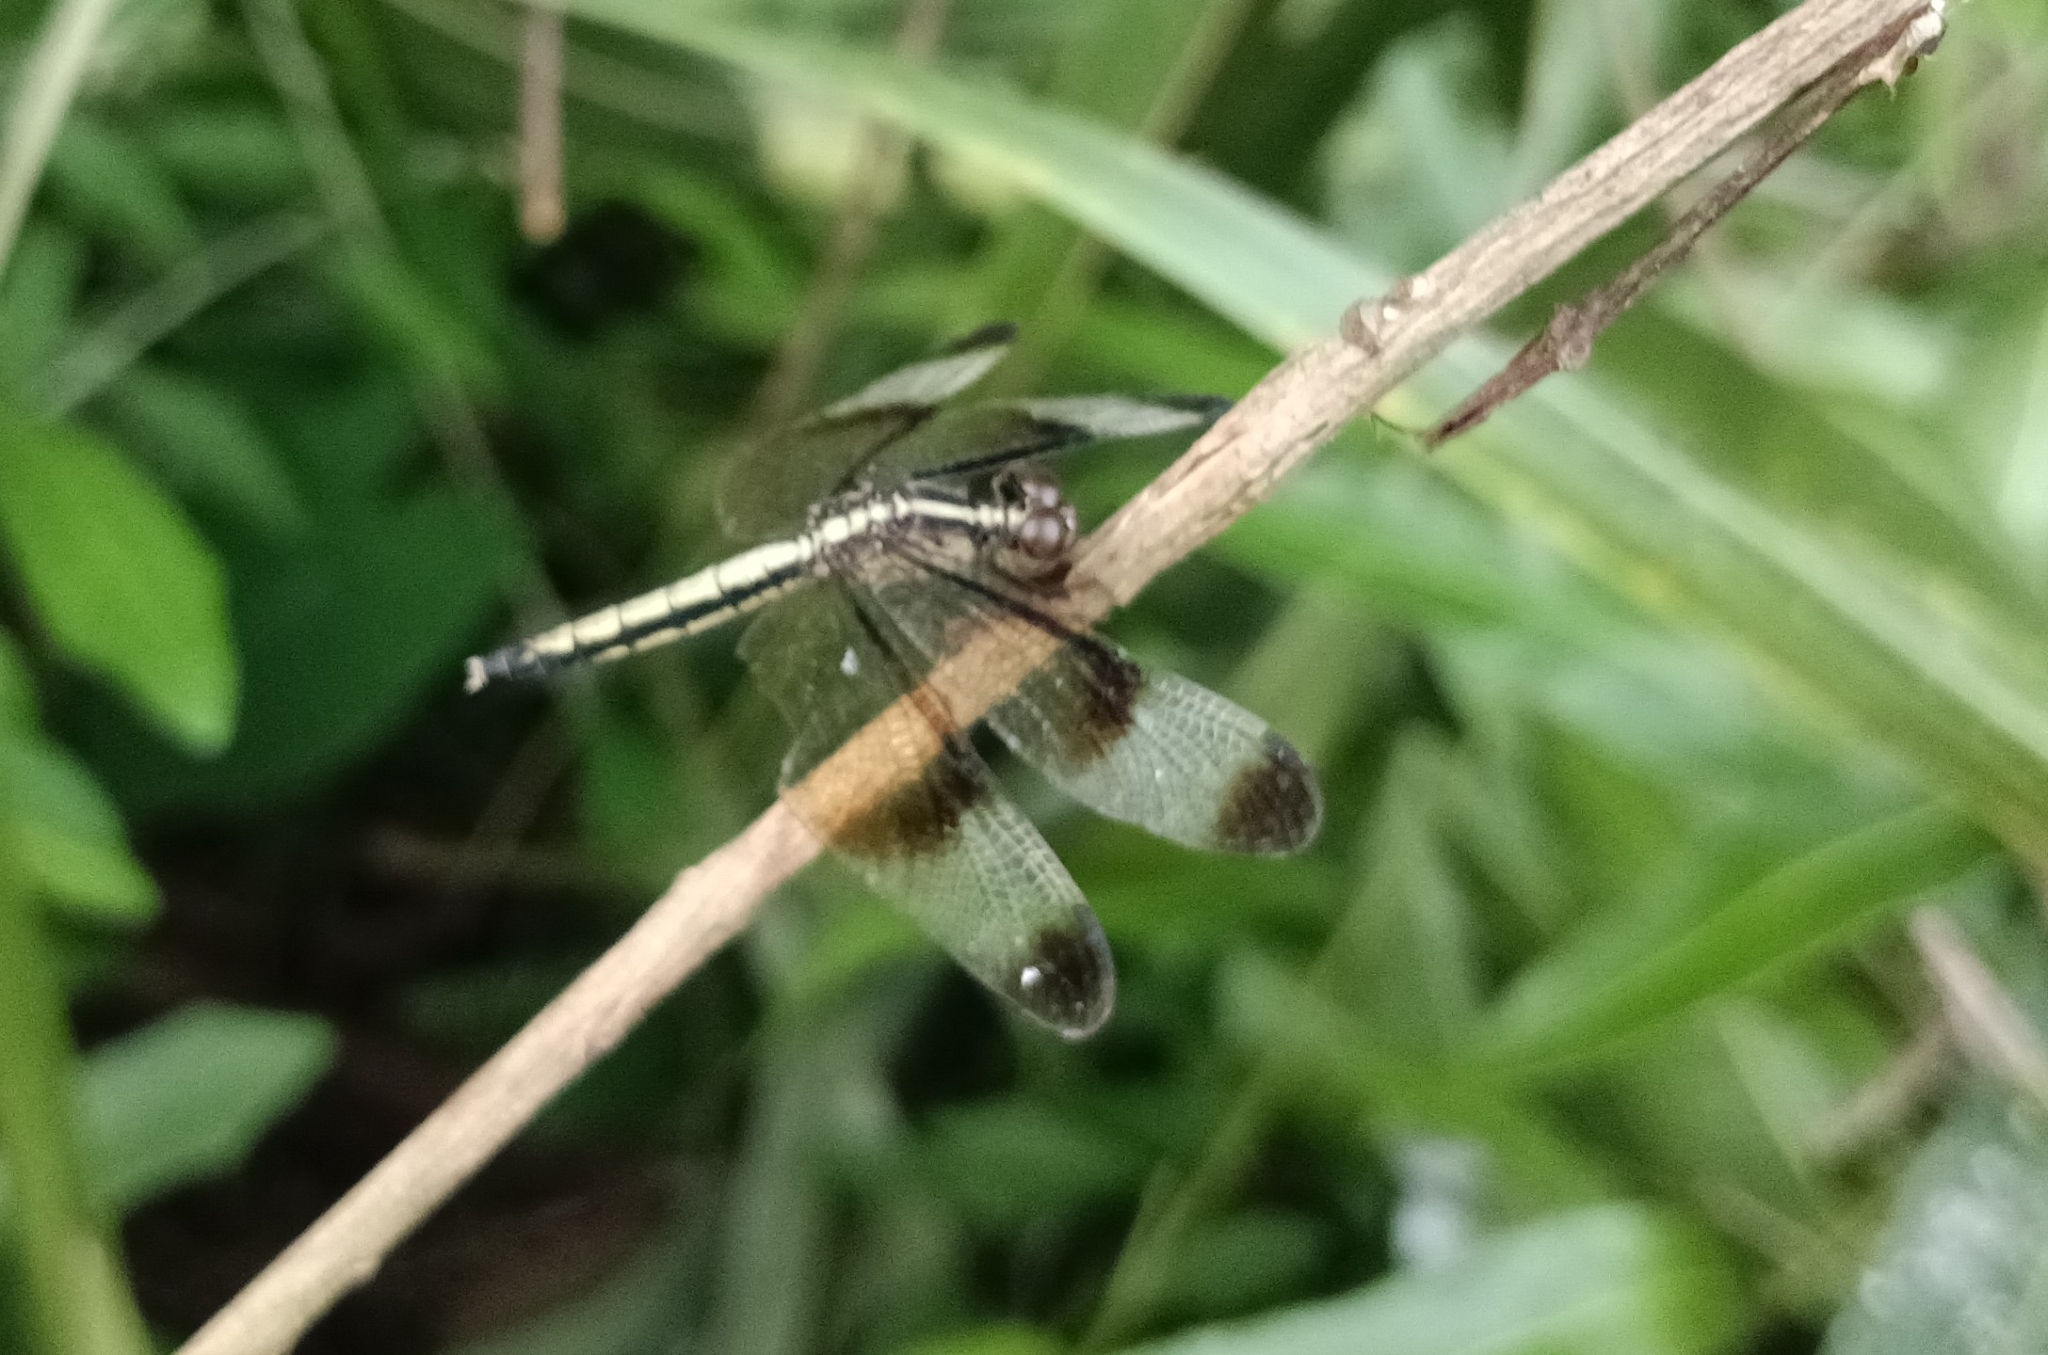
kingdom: Animalia
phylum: Arthropoda
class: Insecta
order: Odonata
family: Libellulidae
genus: Neurothemis
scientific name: Neurothemis tullia
